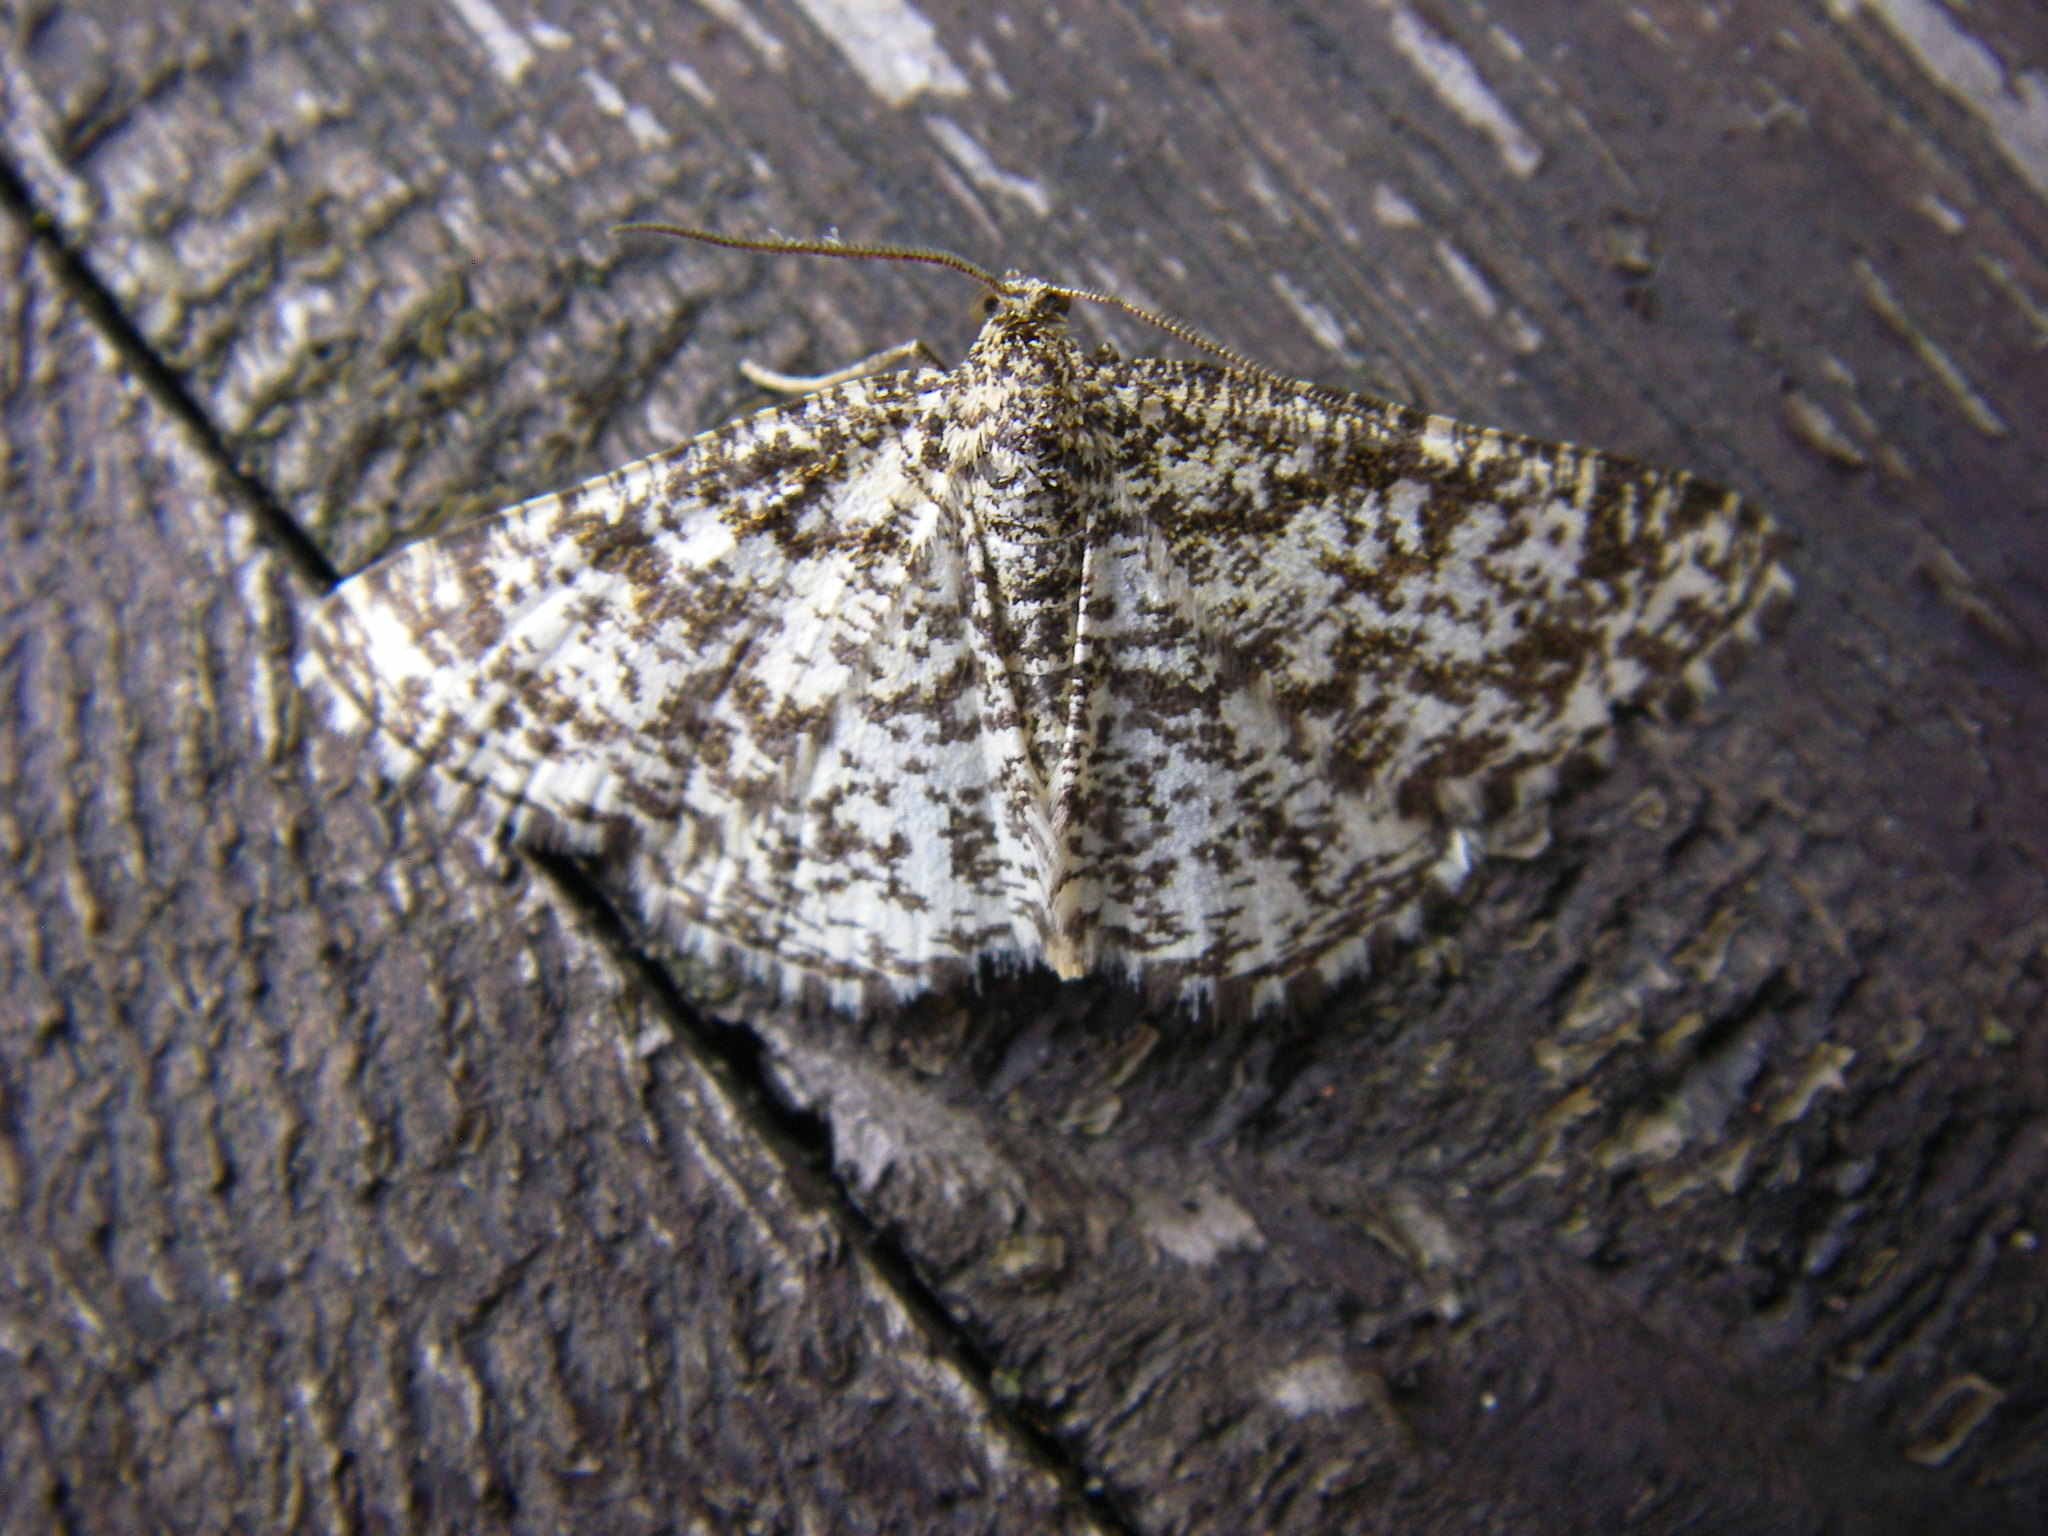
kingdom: Animalia
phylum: Arthropoda
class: Insecta
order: Lepidoptera
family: Geometridae
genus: Heliomata
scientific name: Heliomata glarearia
